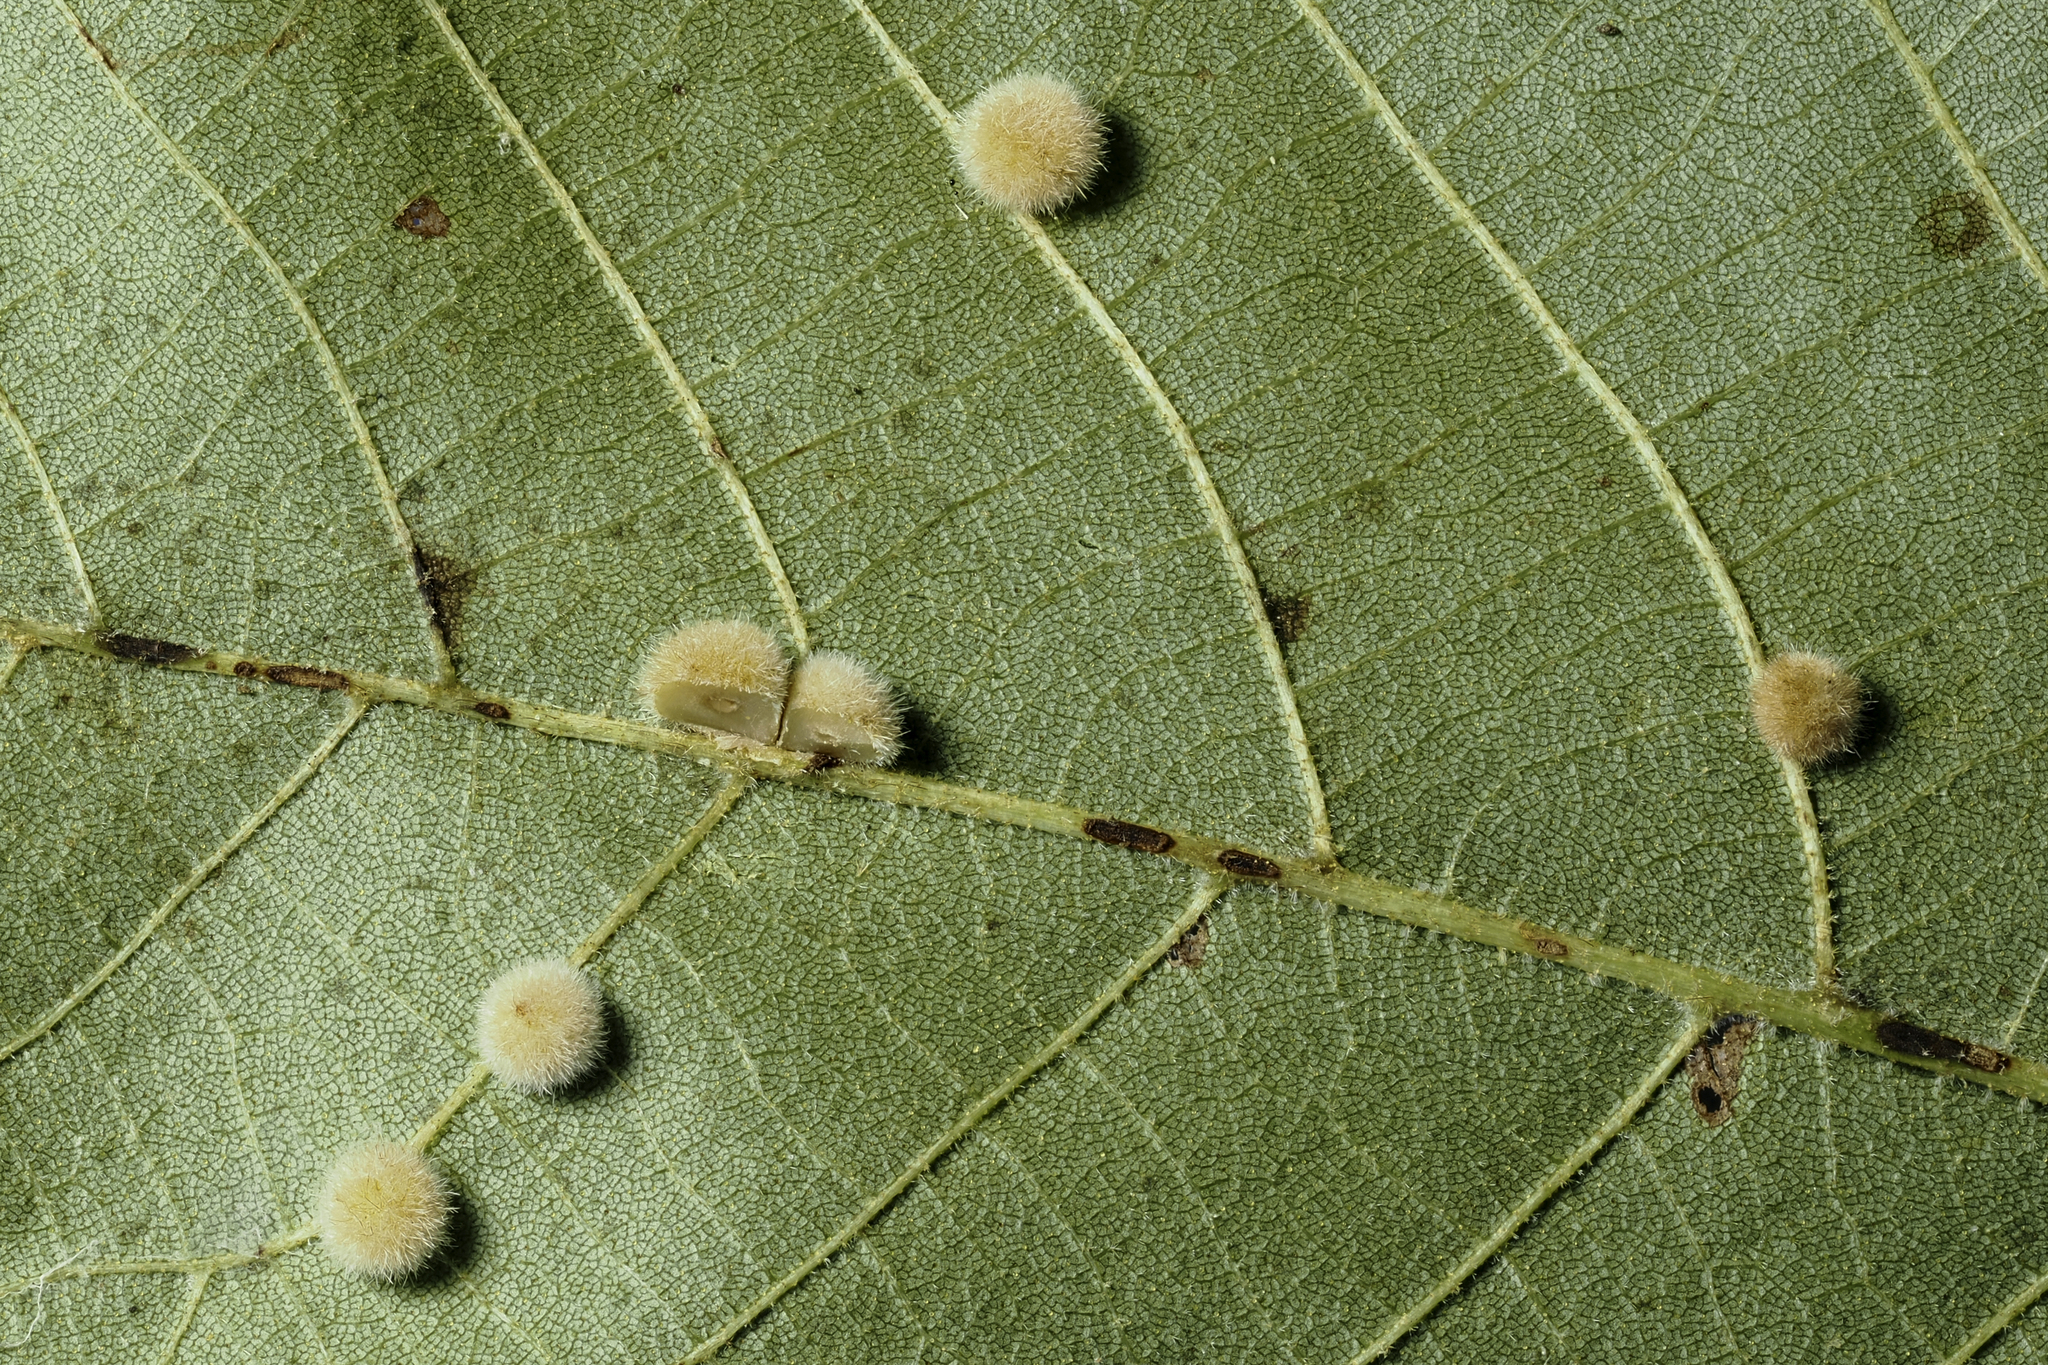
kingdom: Animalia
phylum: Arthropoda
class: Insecta
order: Diptera
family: Cecidomyiidae
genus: Caryomyia
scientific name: Caryomyia spherica
